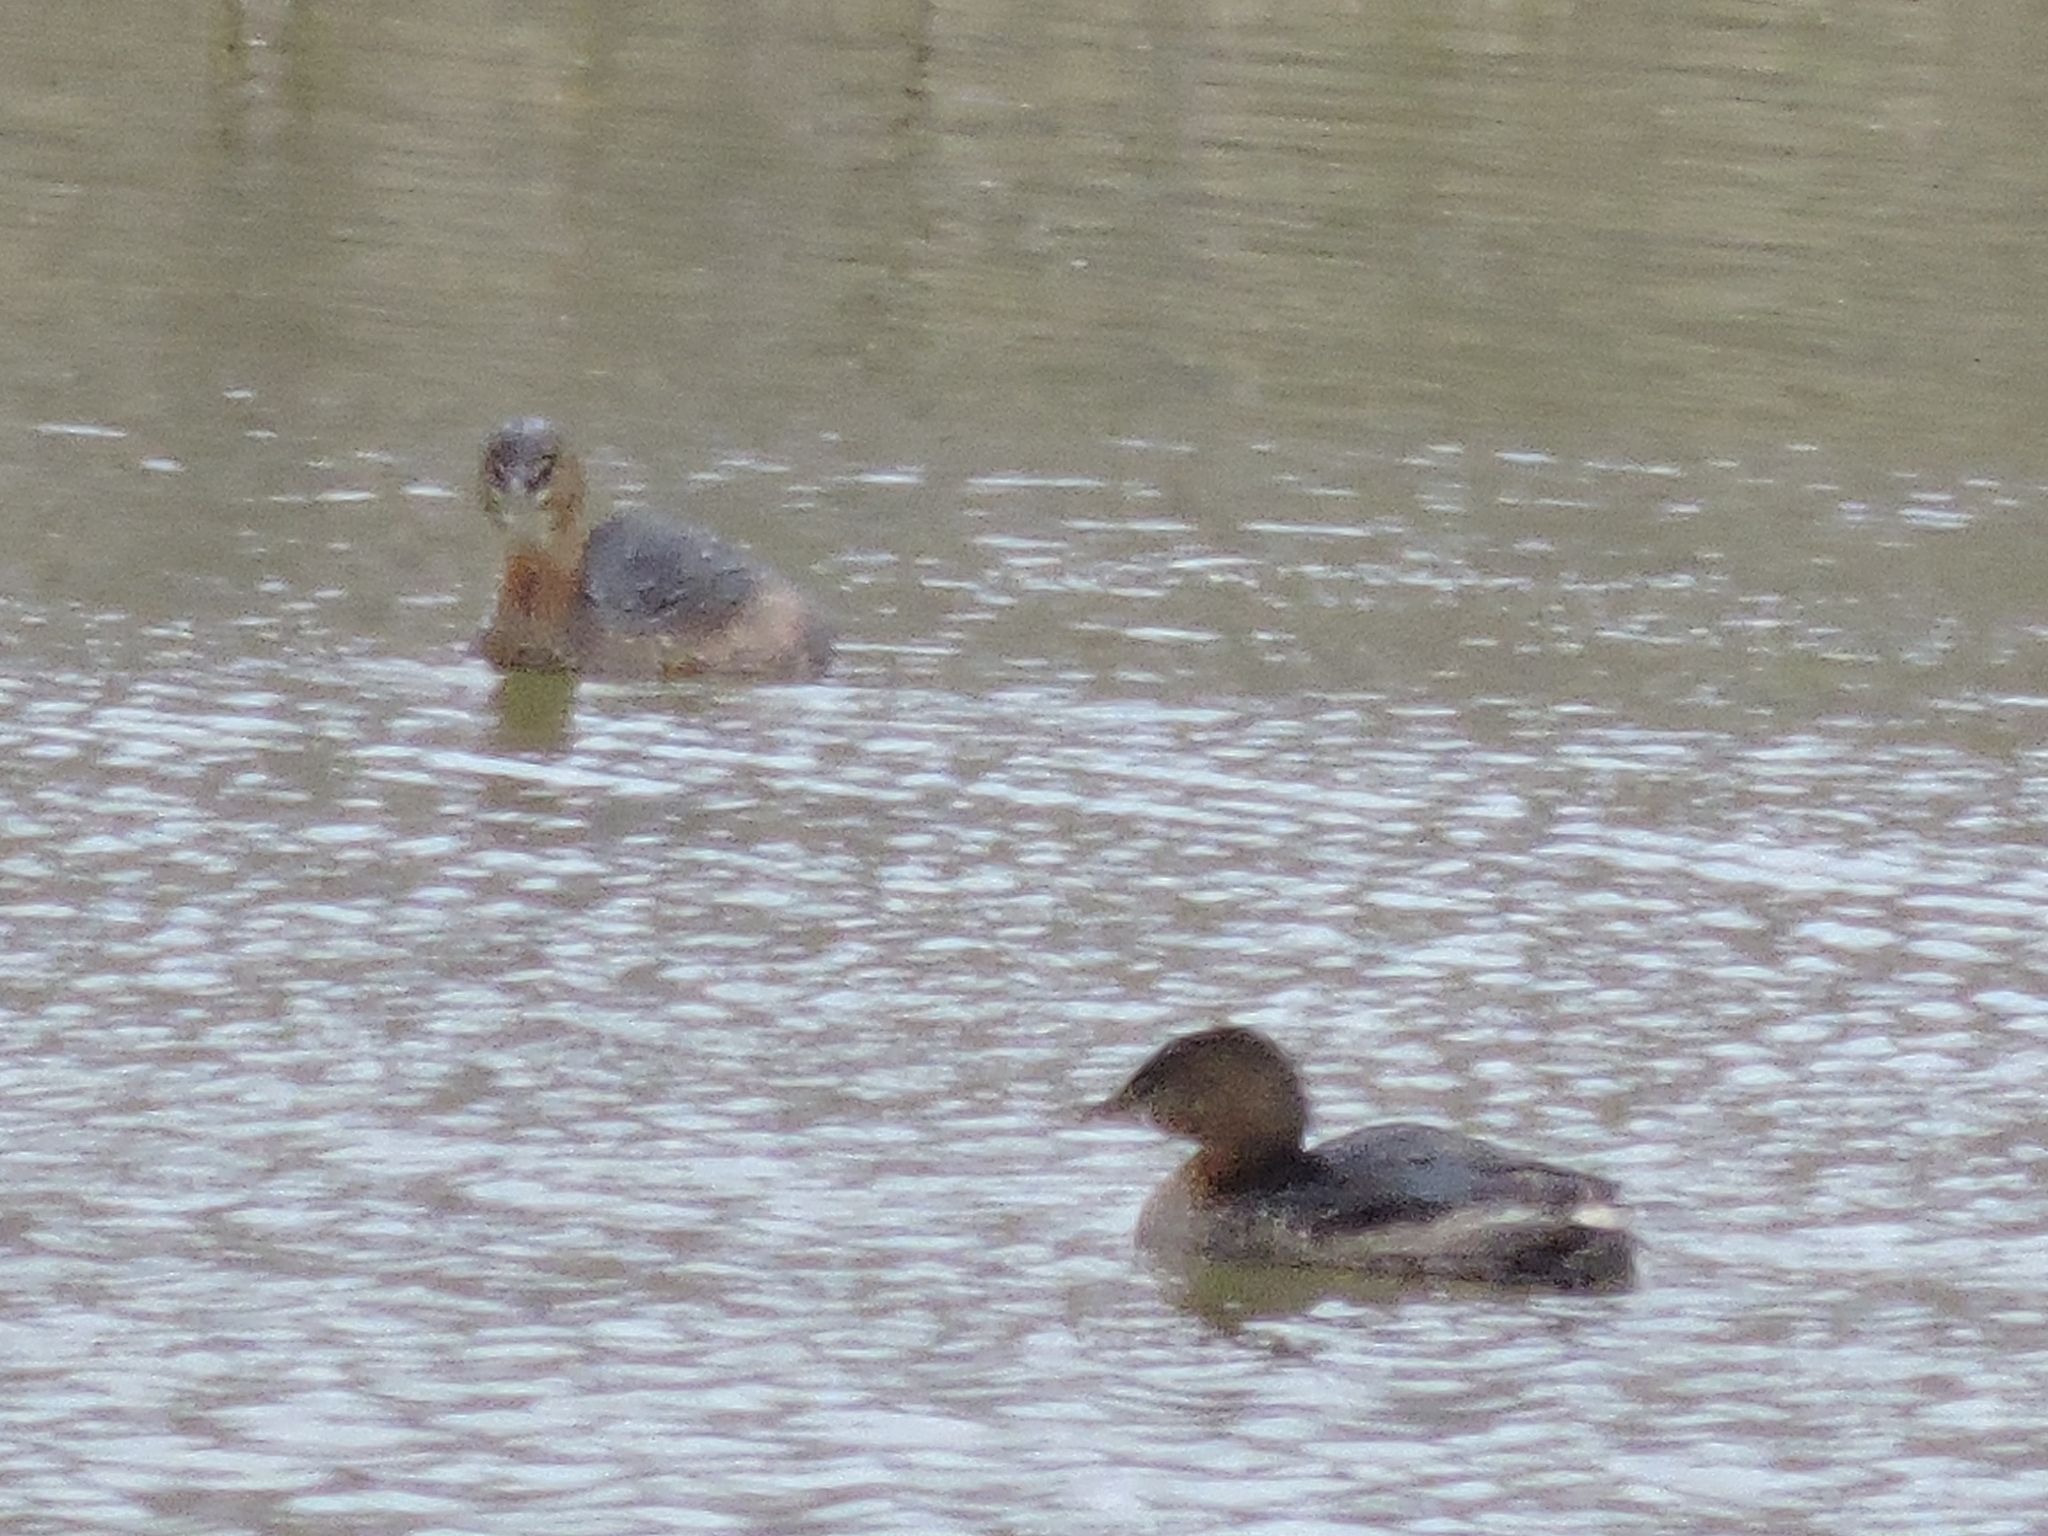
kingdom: Animalia
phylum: Chordata
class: Aves
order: Podicipediformes
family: Podicipedidae
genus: Podilymbus
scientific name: Podilymbus podiceps
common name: Pied-billed grebe
